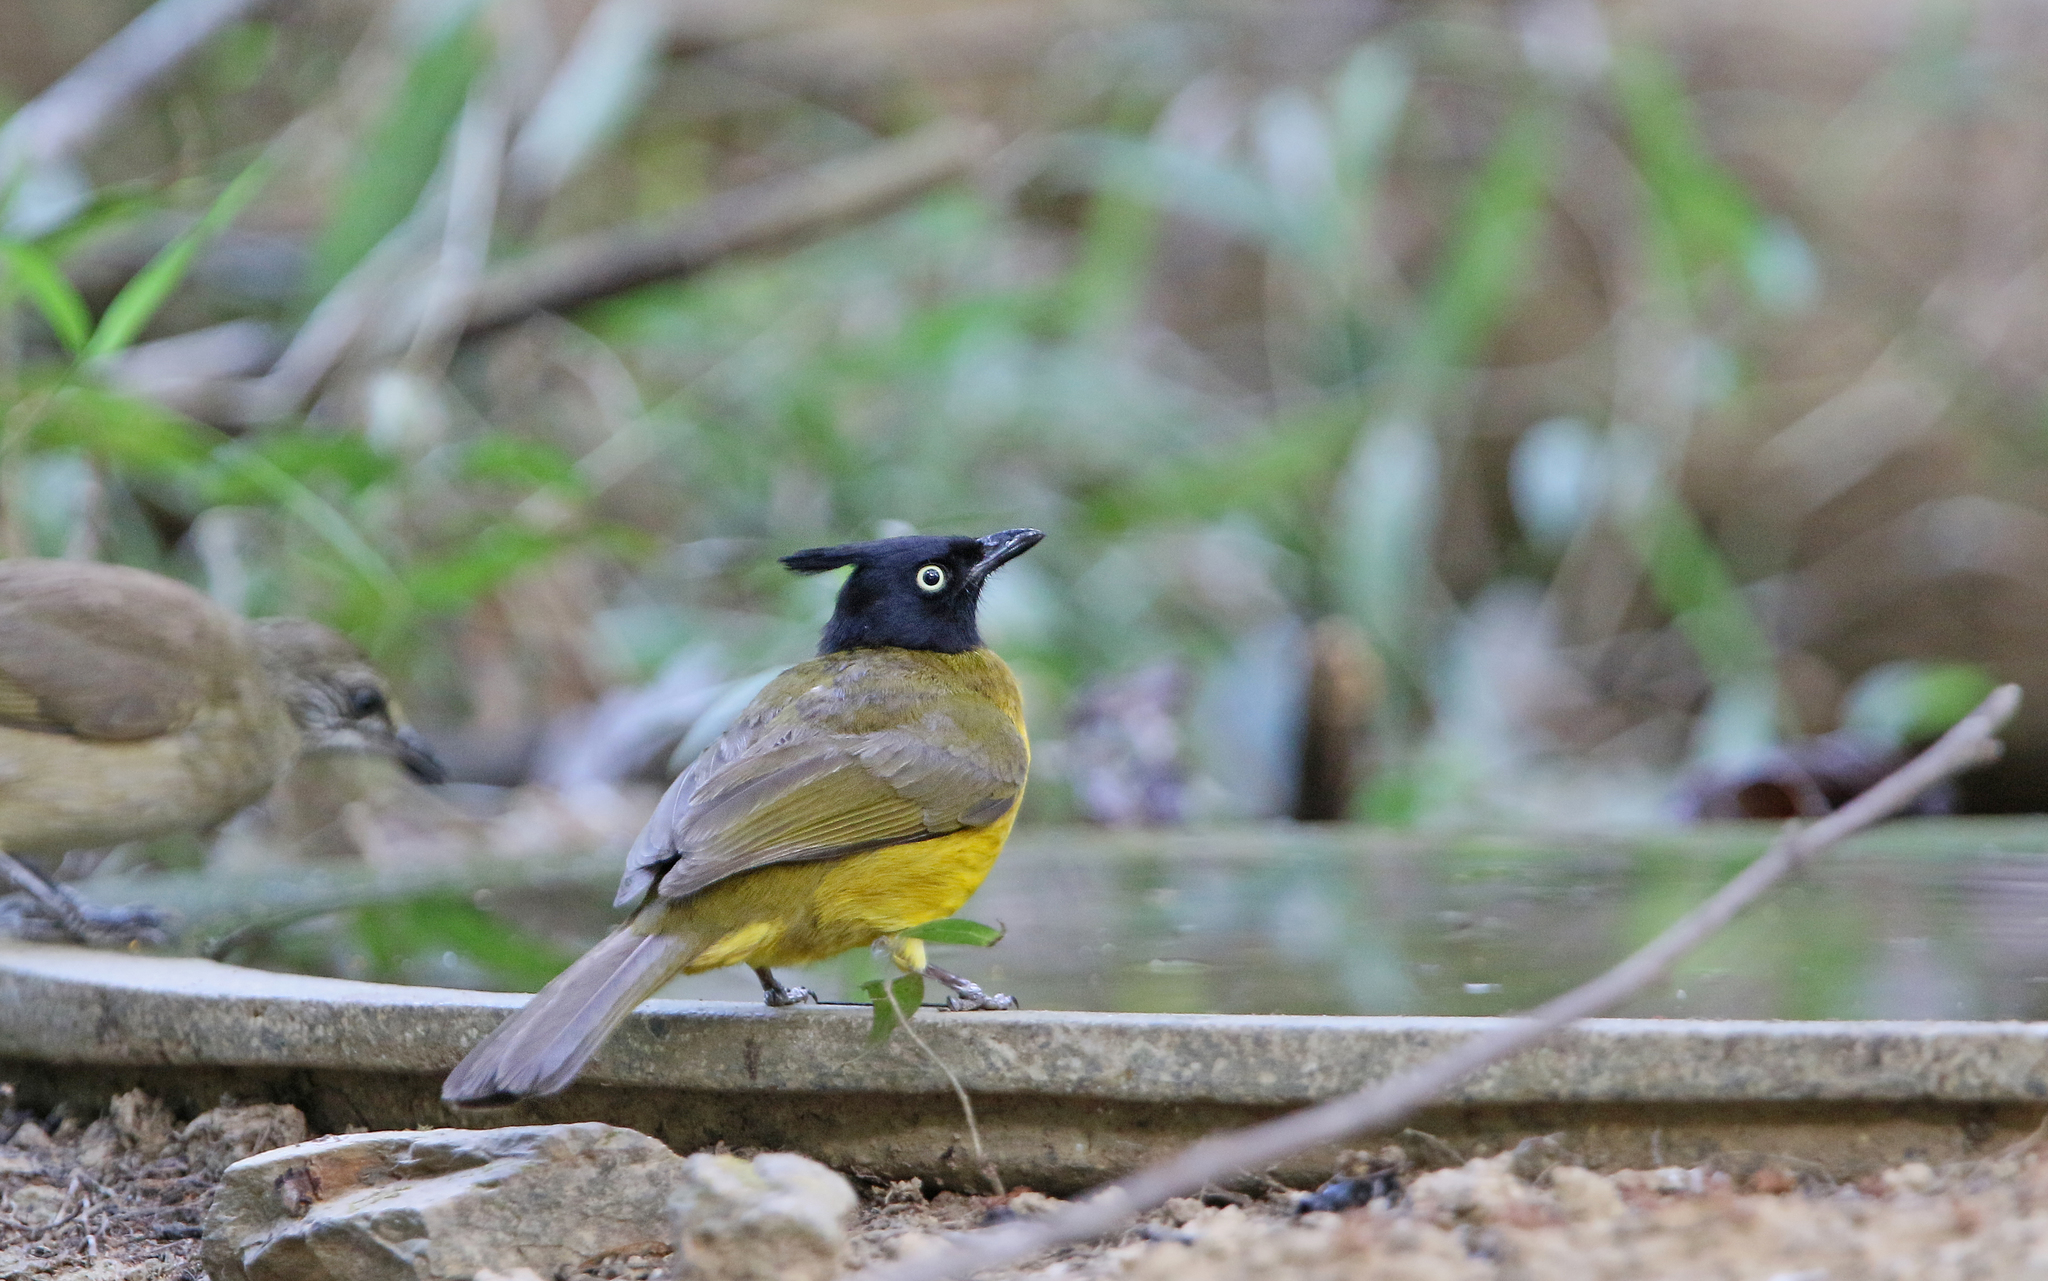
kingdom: Animalia
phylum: Chordata
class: Aves
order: Passeriformes
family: Pycnonotidae
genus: Pycnonotus
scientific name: Pycnonotus flaviventris
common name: Black-crested bulbul
